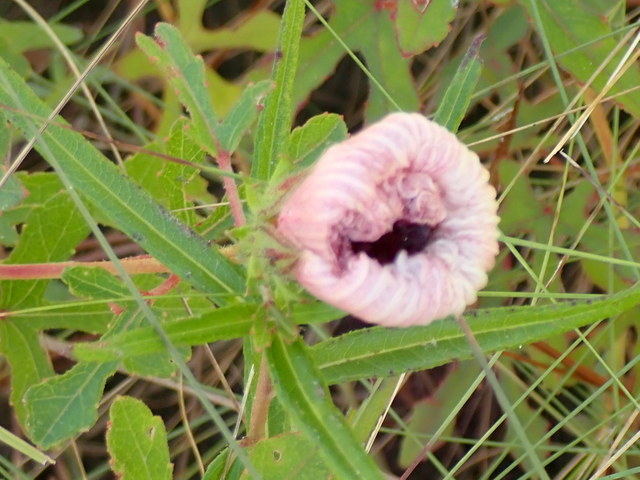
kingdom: Plantae
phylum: Tracheophyta
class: Magnoliopsida
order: Malvales
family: Malvaceae
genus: Hibiscus
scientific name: Hibiscus aculeatus
